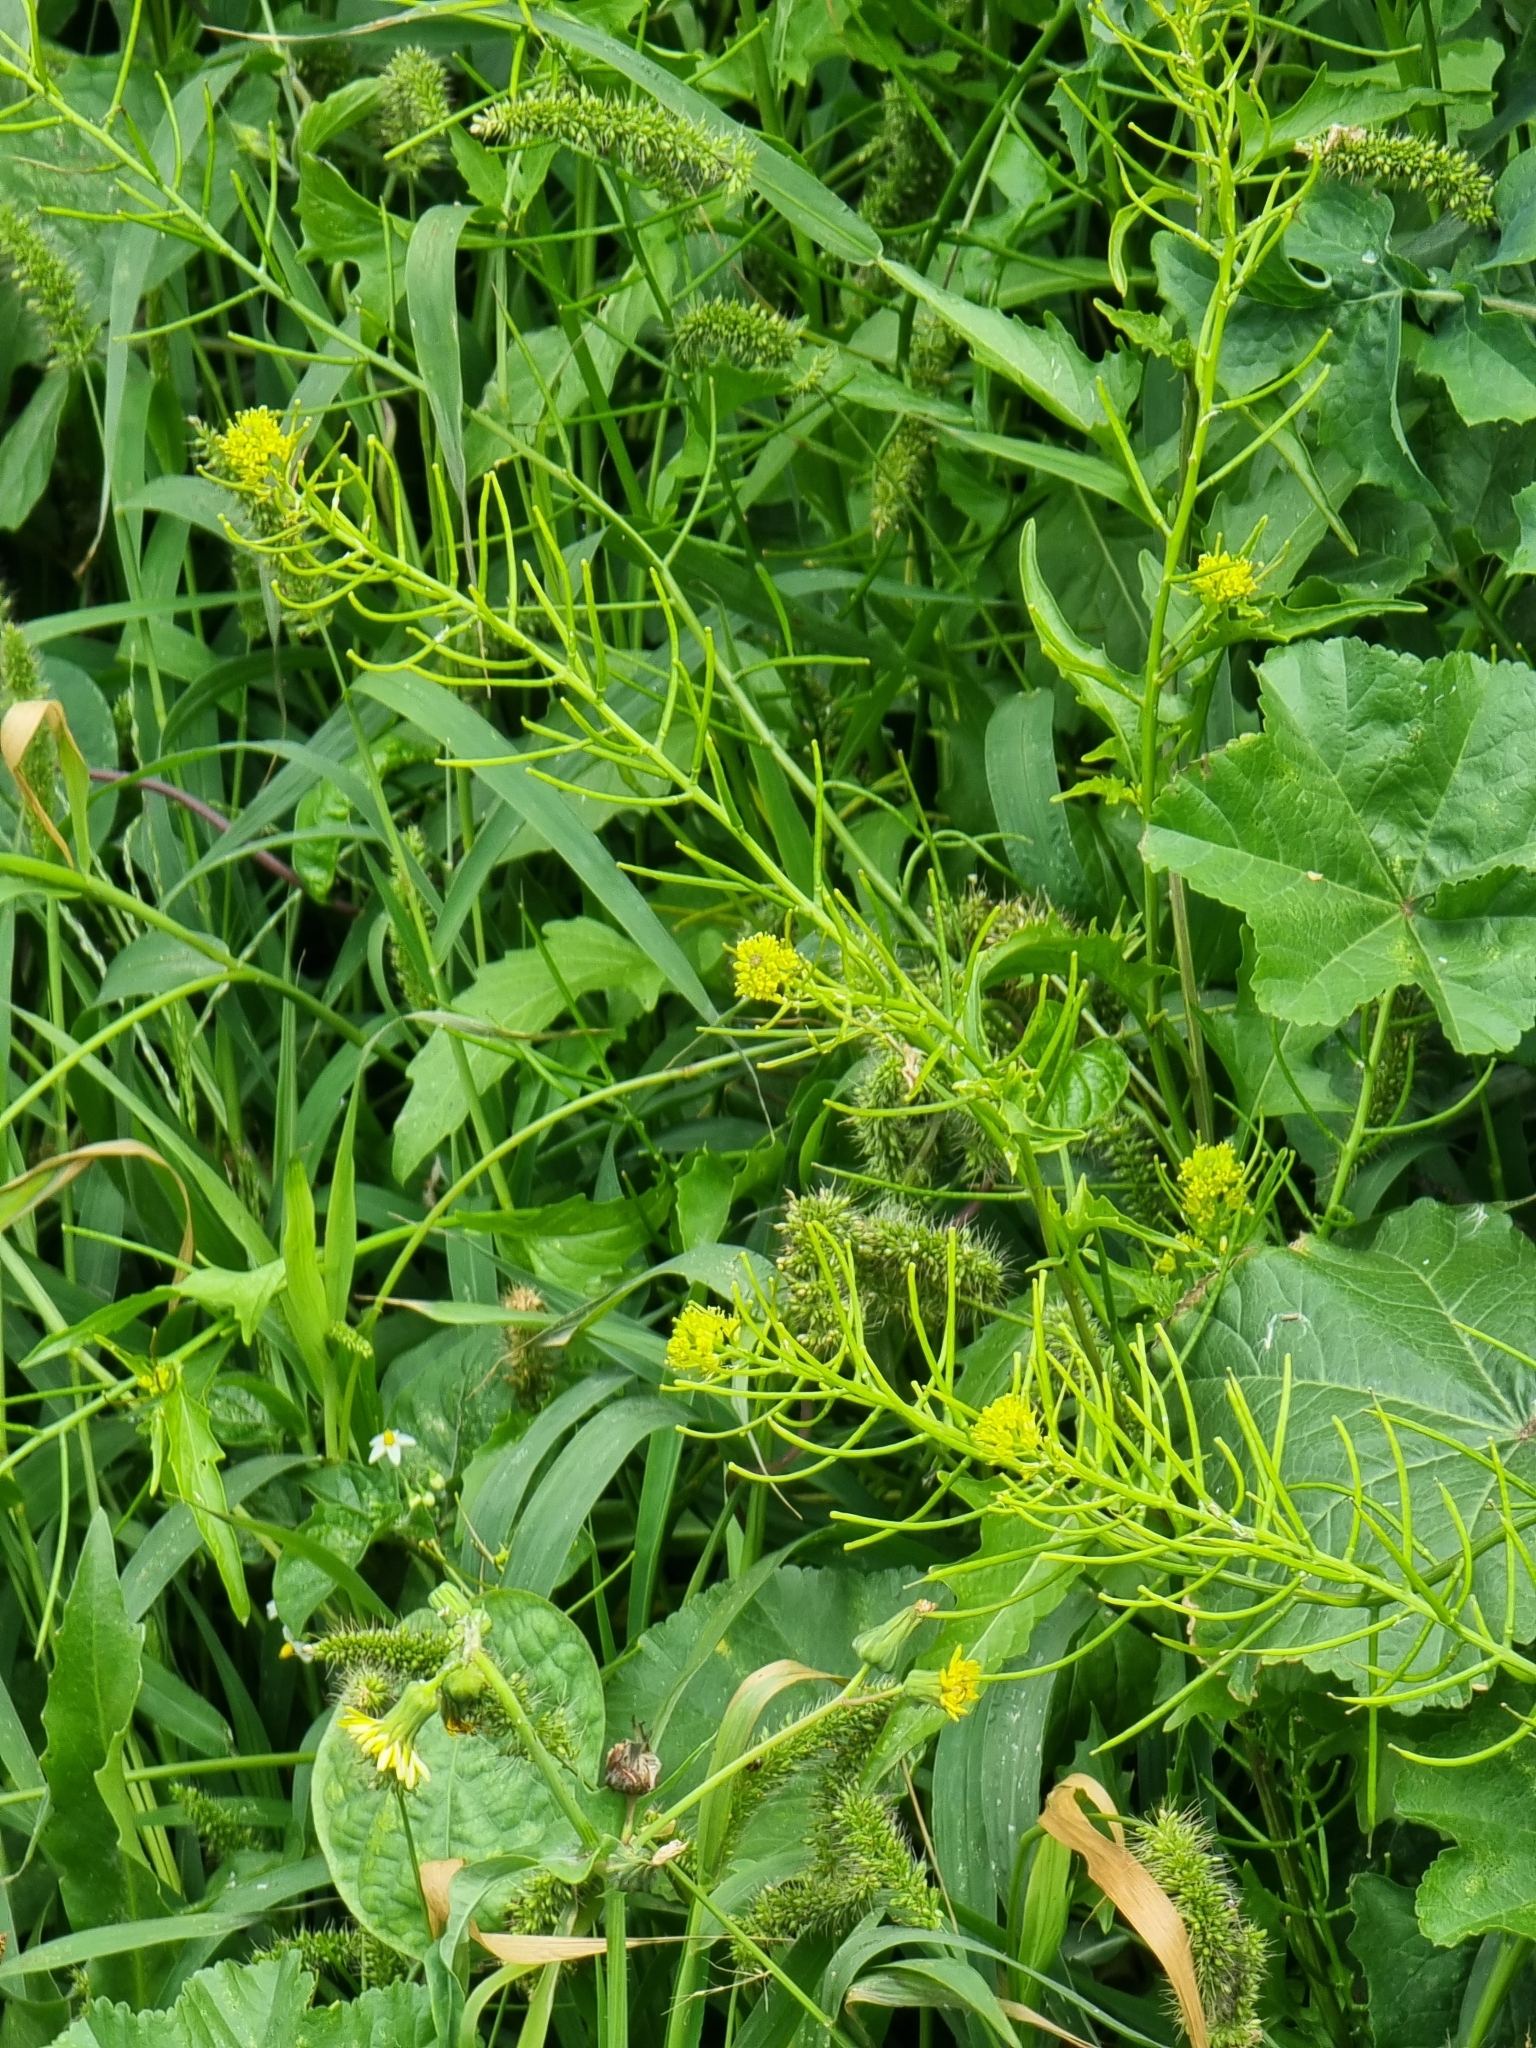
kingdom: Plantae
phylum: Tracheophyta
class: Magnoliopsida
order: Brassicales
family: Brassicaceae
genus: Sisymbrium
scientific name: Sisymbrium erysimoides
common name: French rocket
